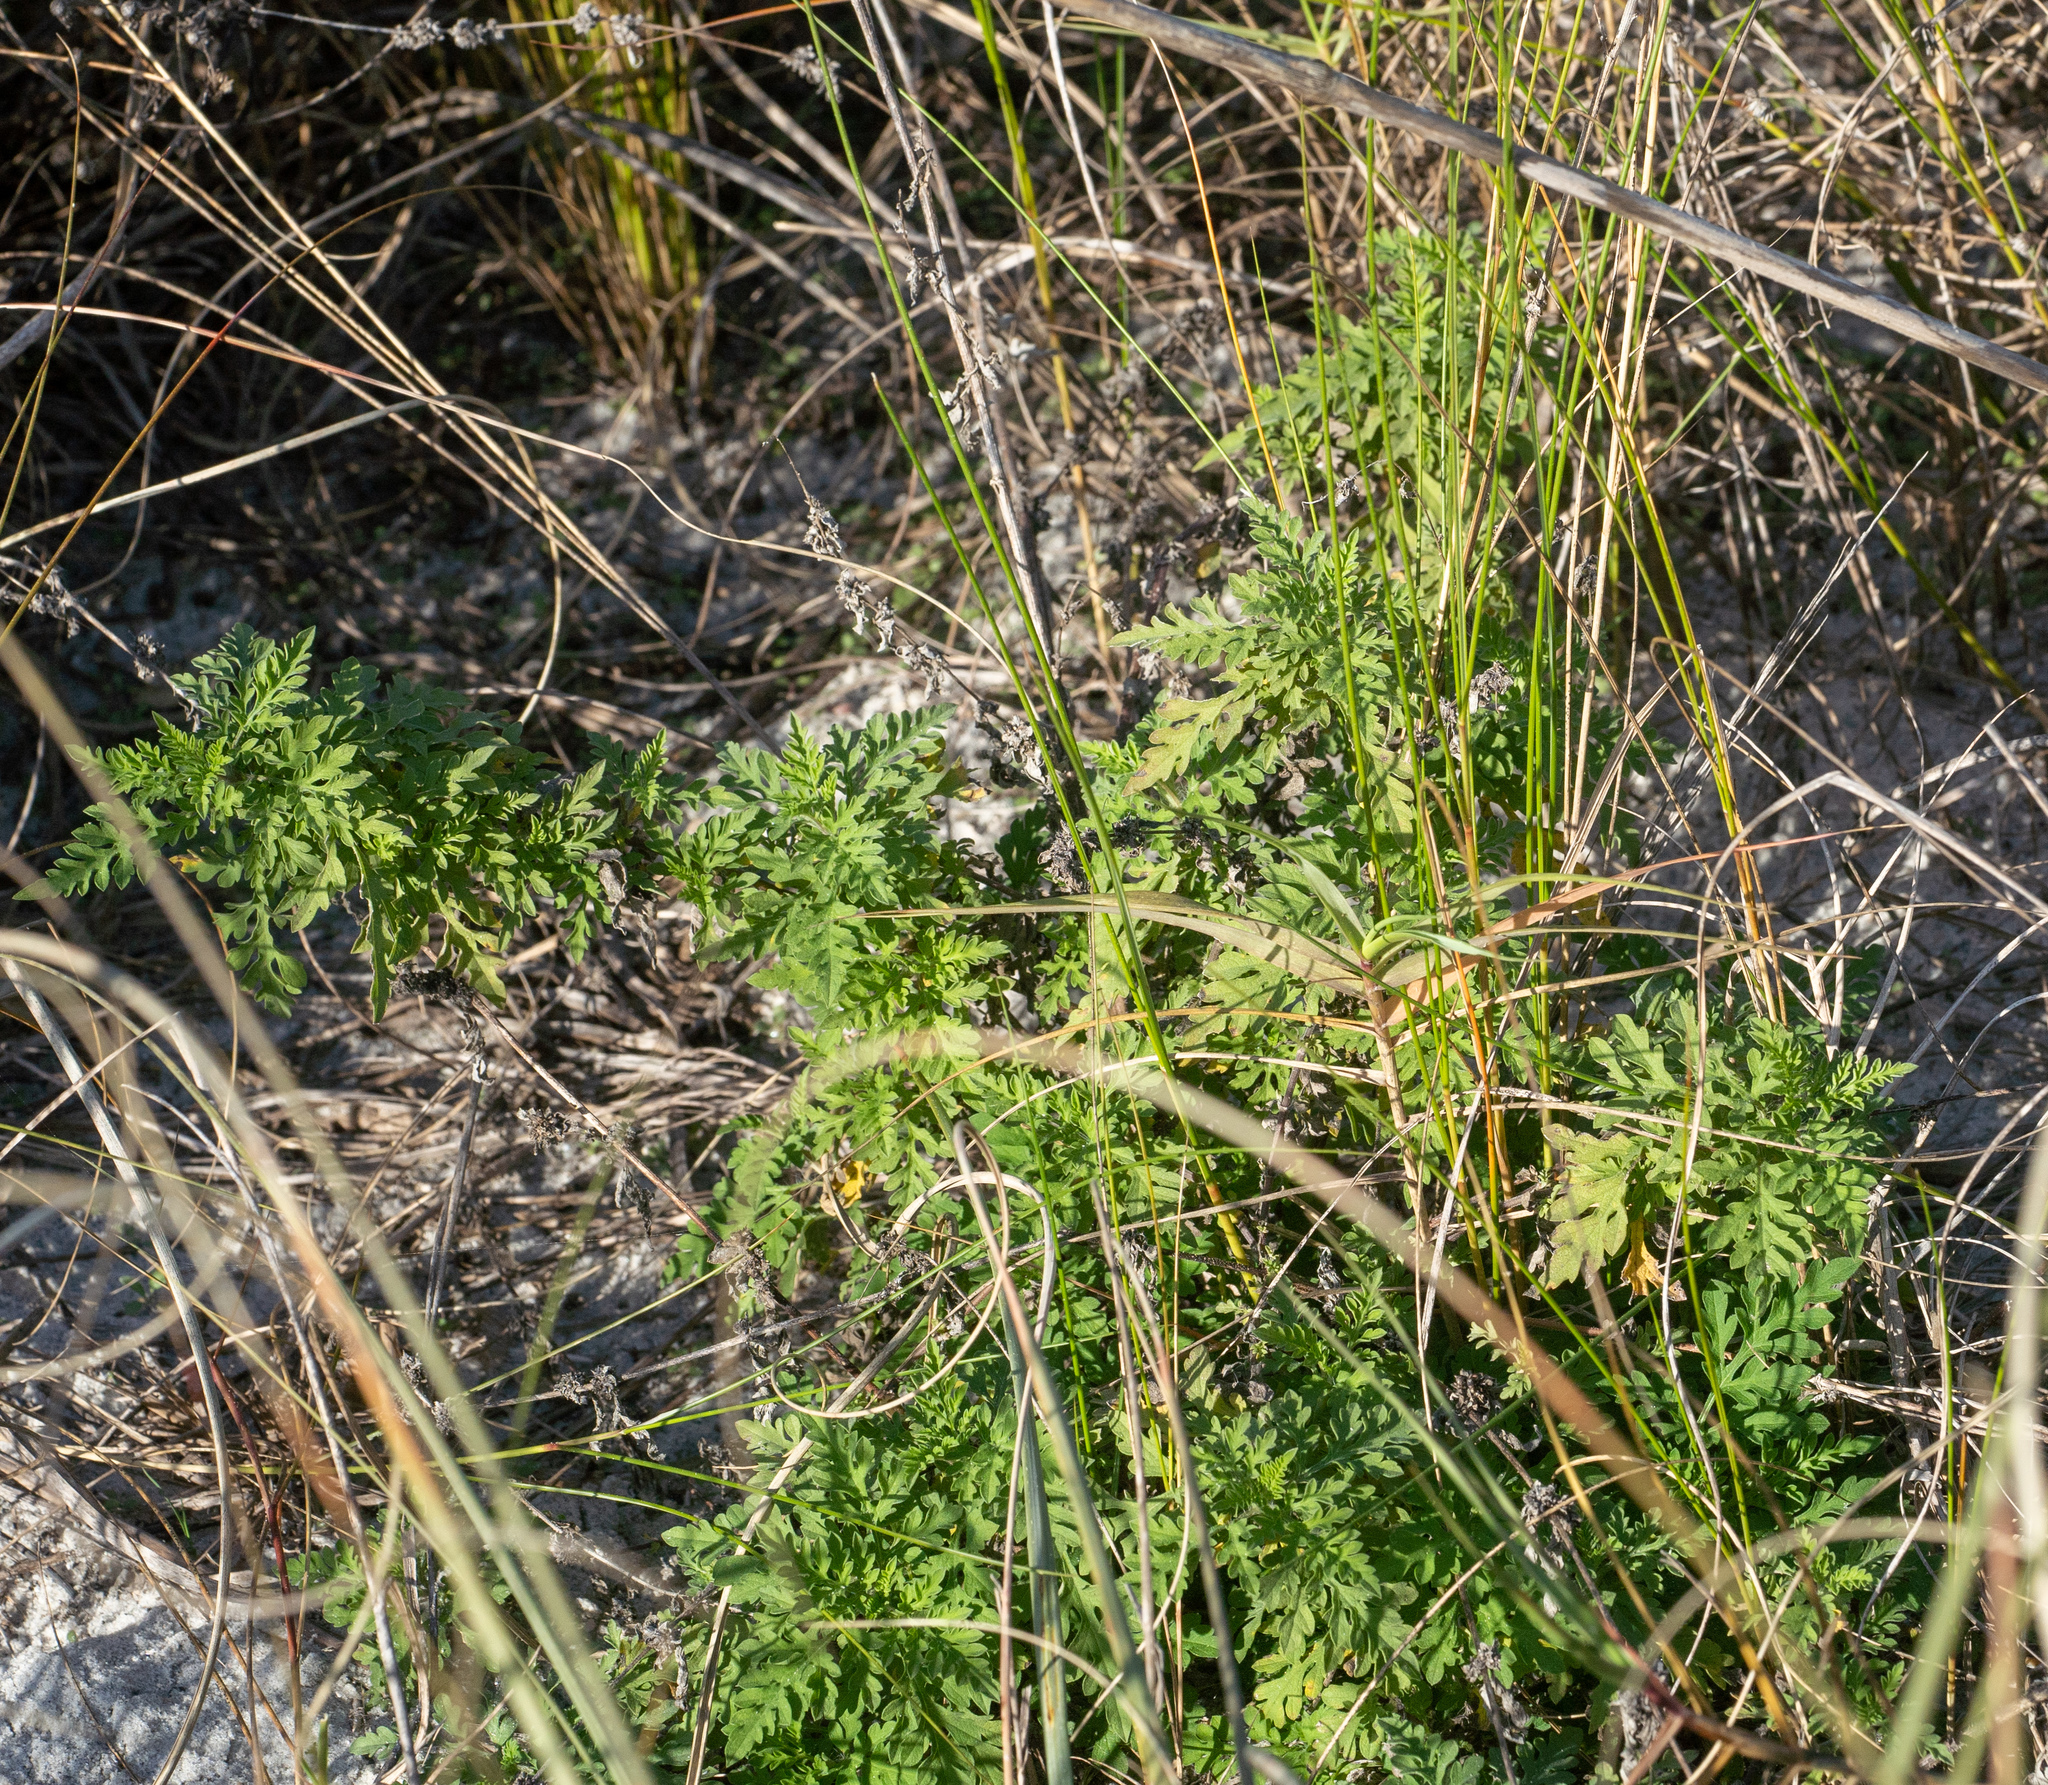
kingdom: Plantae
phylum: Tracheophyta
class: Magnoliopsida
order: Asterales
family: Asteraceae
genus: Ambrosia
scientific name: Ambrosia artemisiifolia
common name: Annual ragweed
